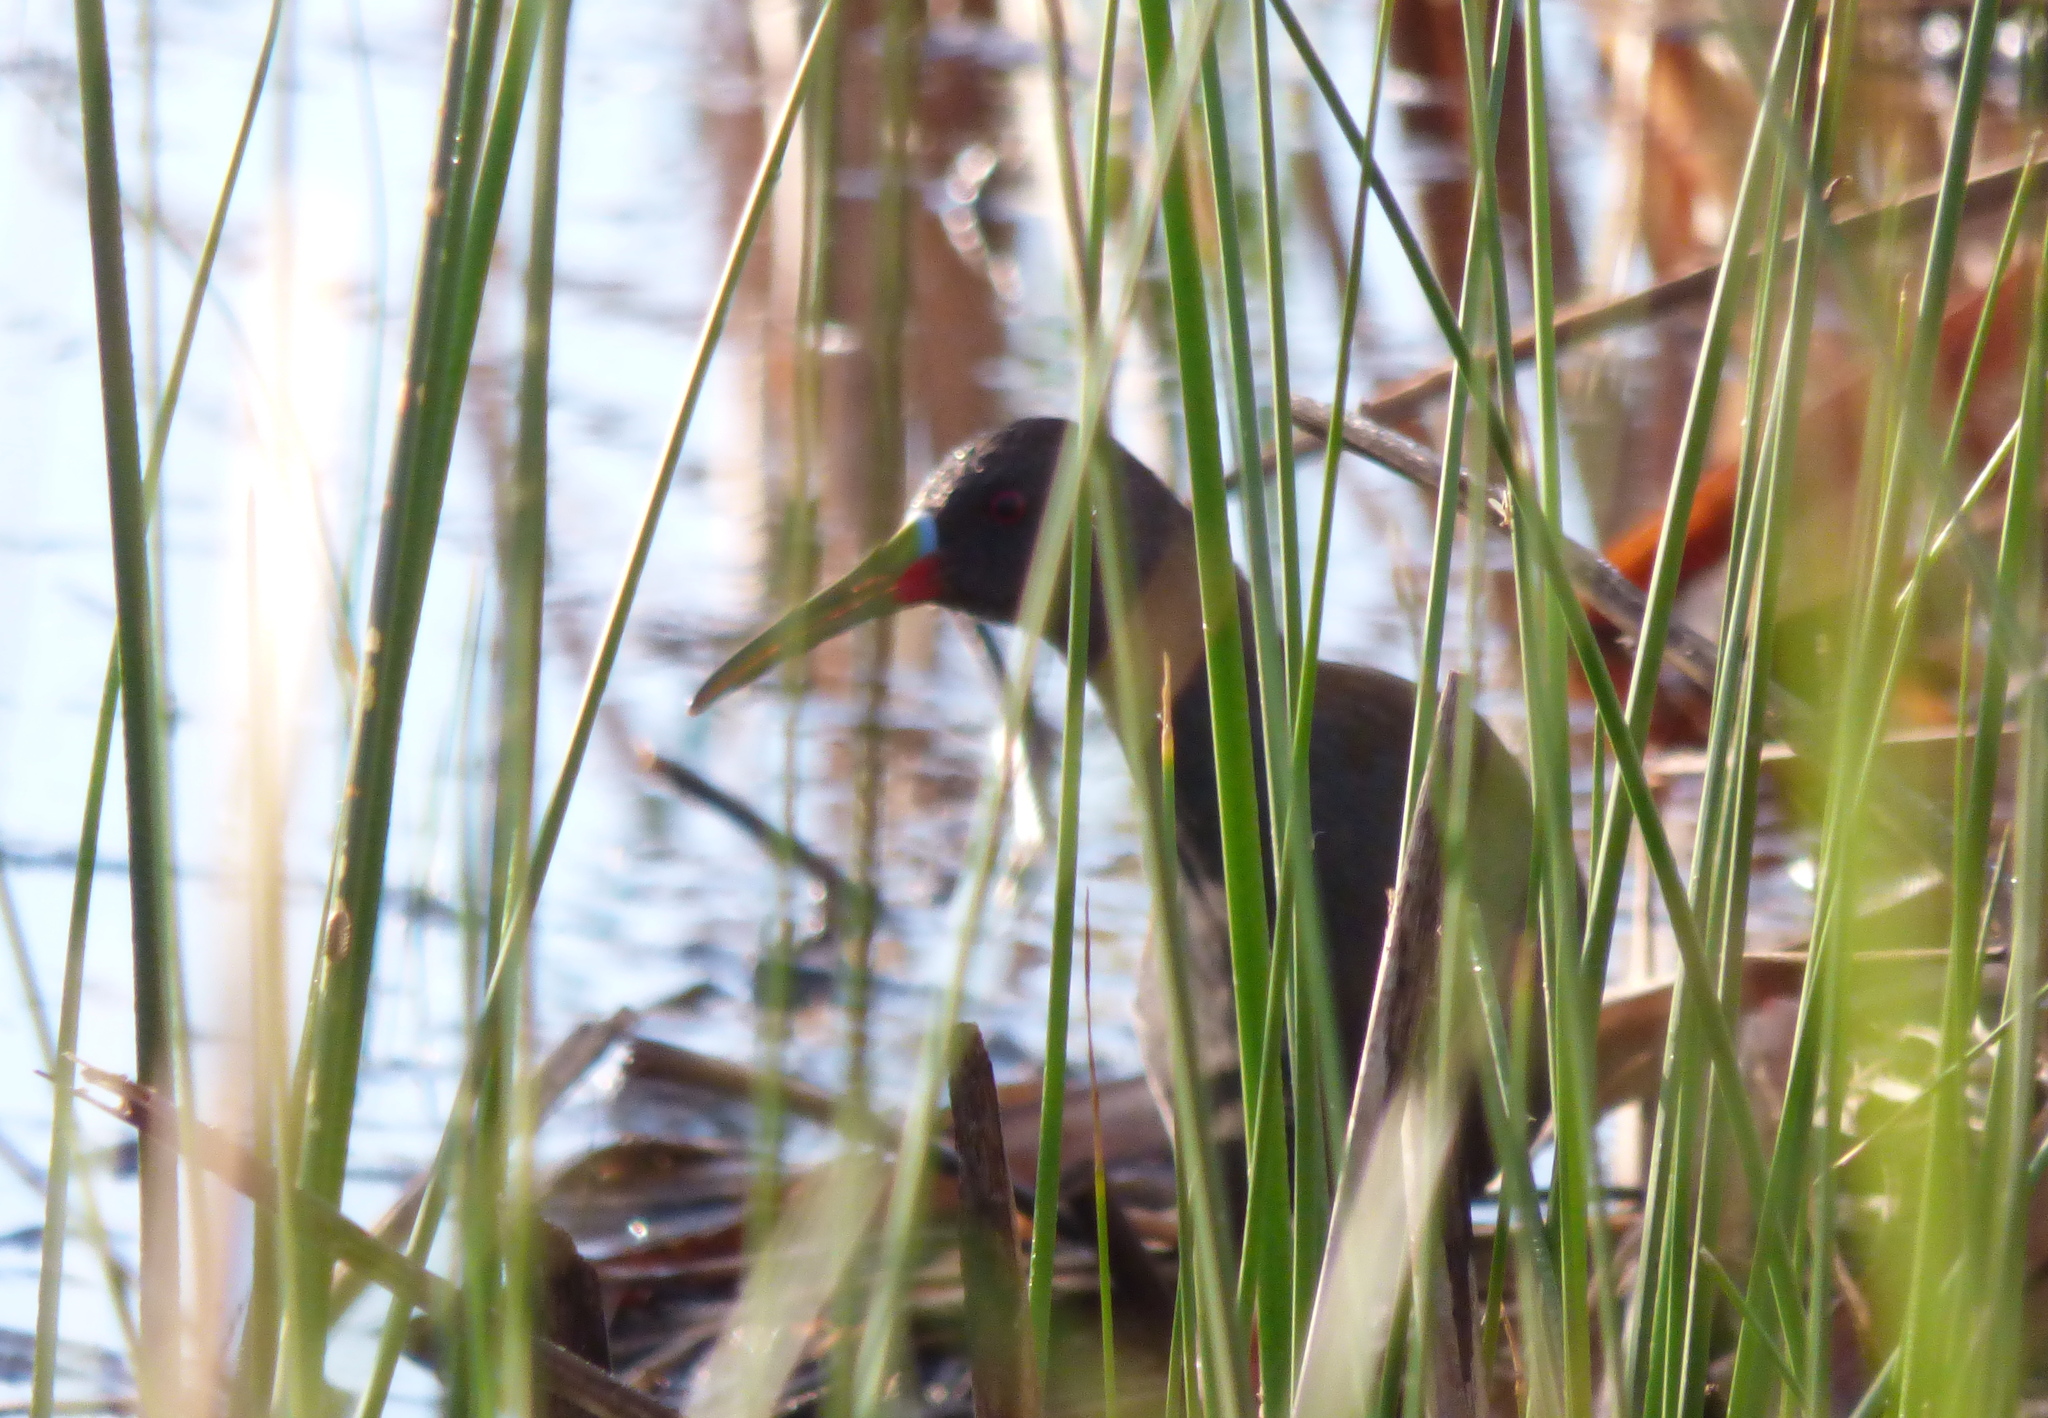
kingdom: Animalia
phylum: Chordata
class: Aves
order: Gruiformes
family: Rallidae
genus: Pardirallus
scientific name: Pardirallus sanguinolentus
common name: Plumbeous rail
